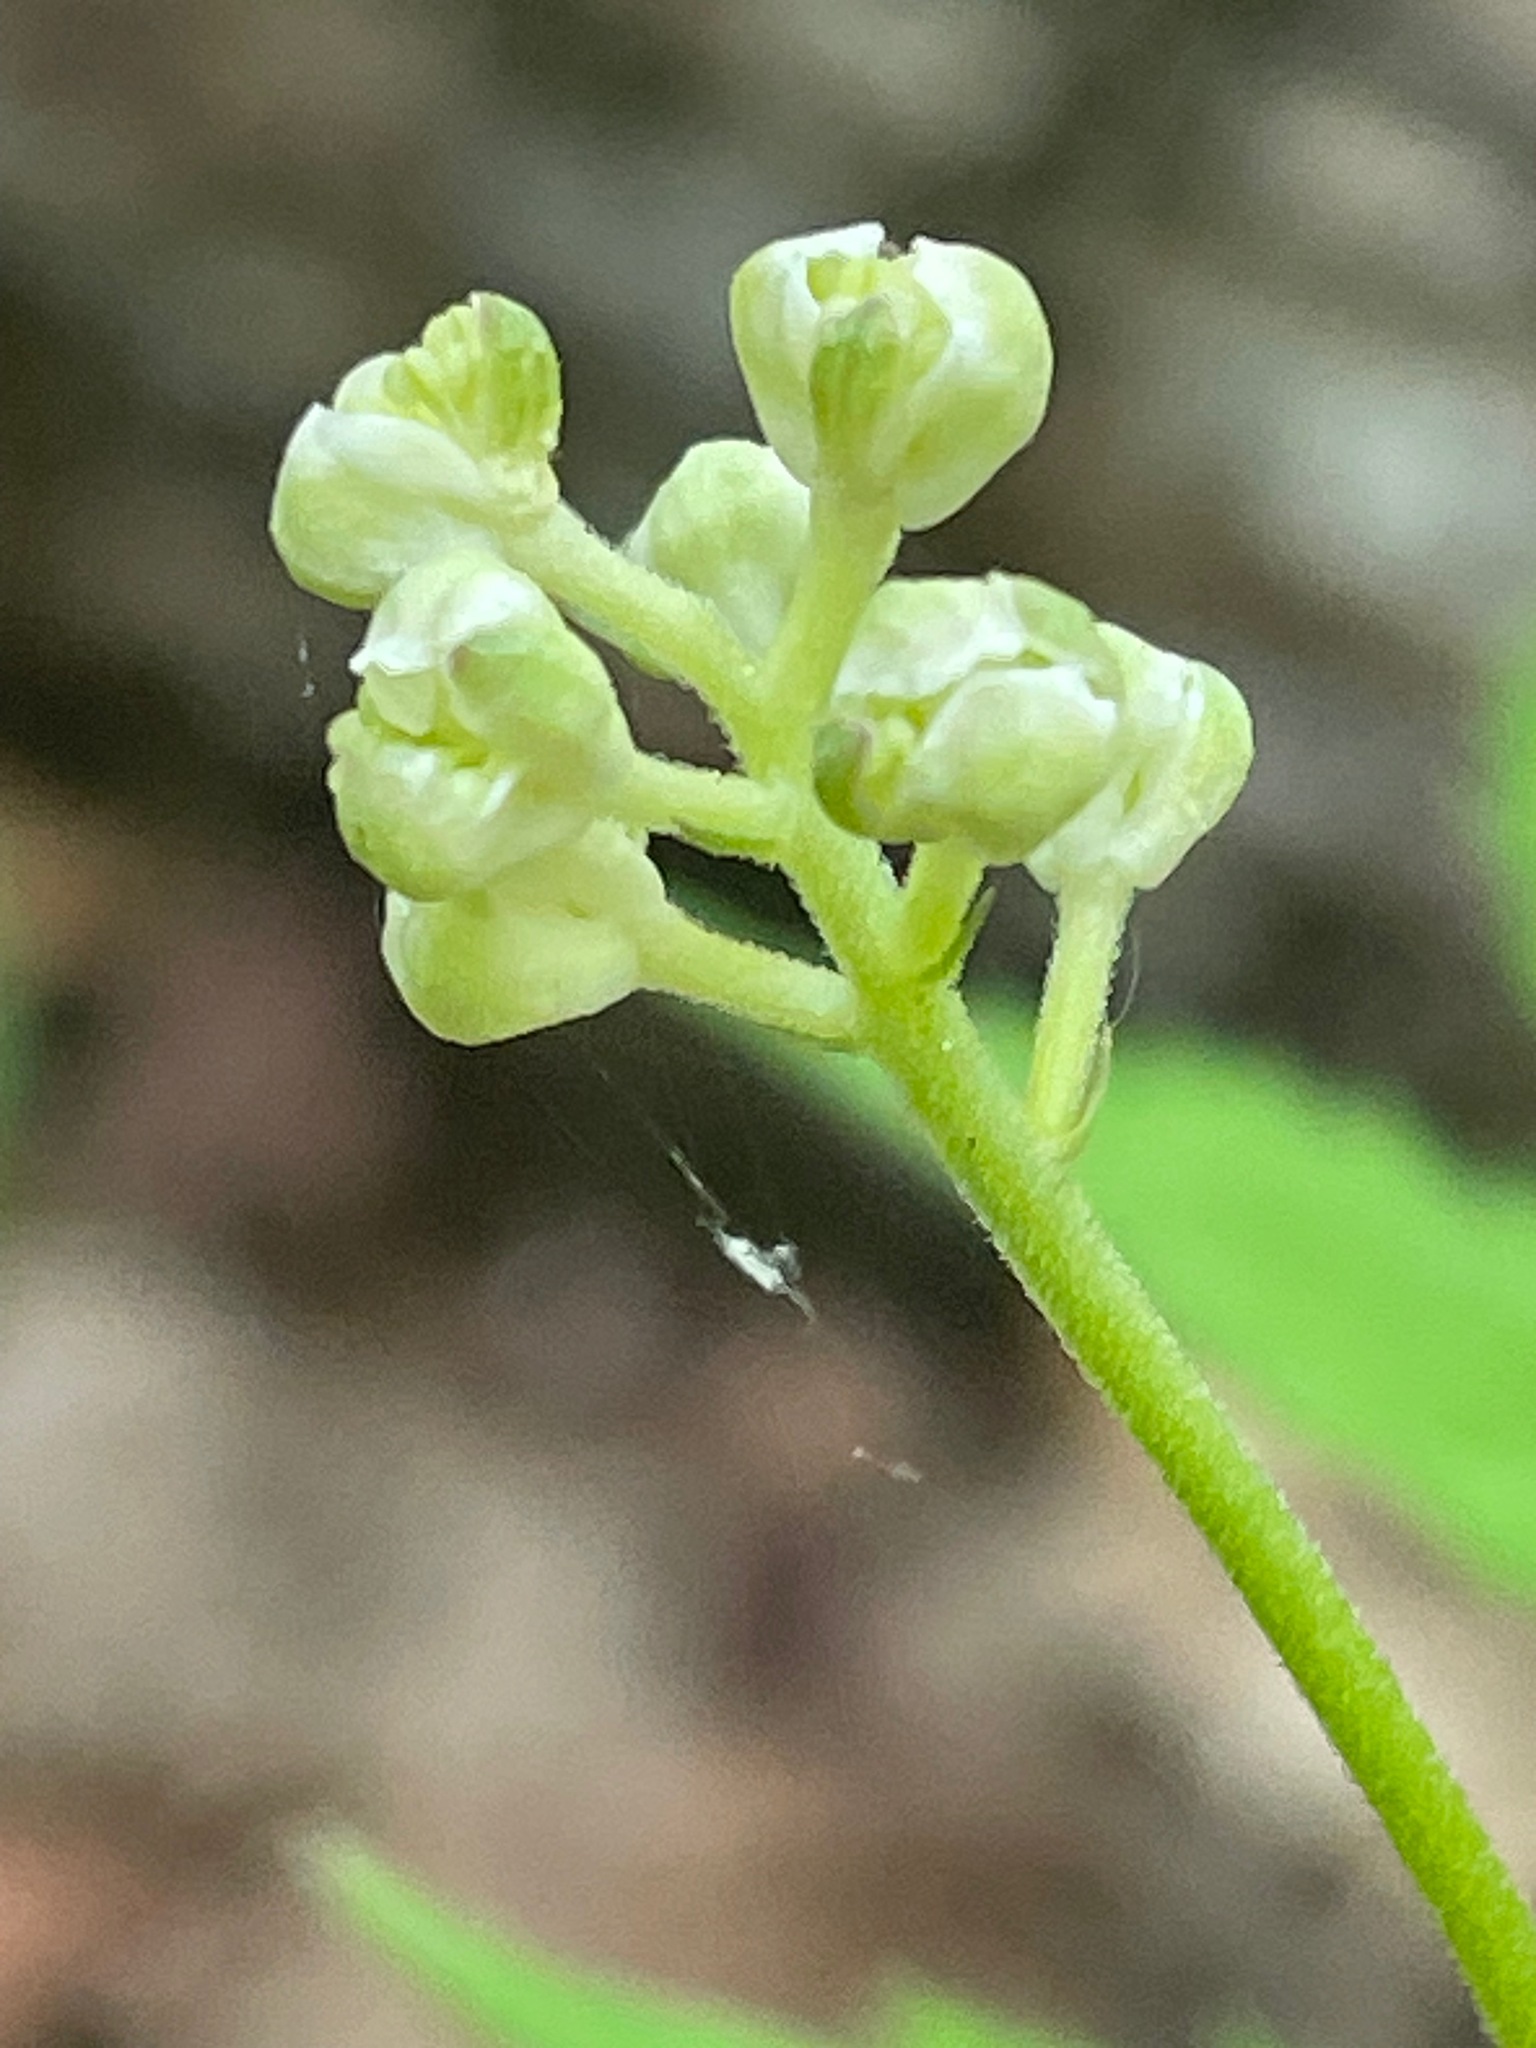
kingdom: Plantae
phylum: Tracheophyta
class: Magnoliopsida
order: Ranunculales
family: Ranunculaceae
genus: Actaea
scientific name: Actaea pachypoda
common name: Doll's-eyes
